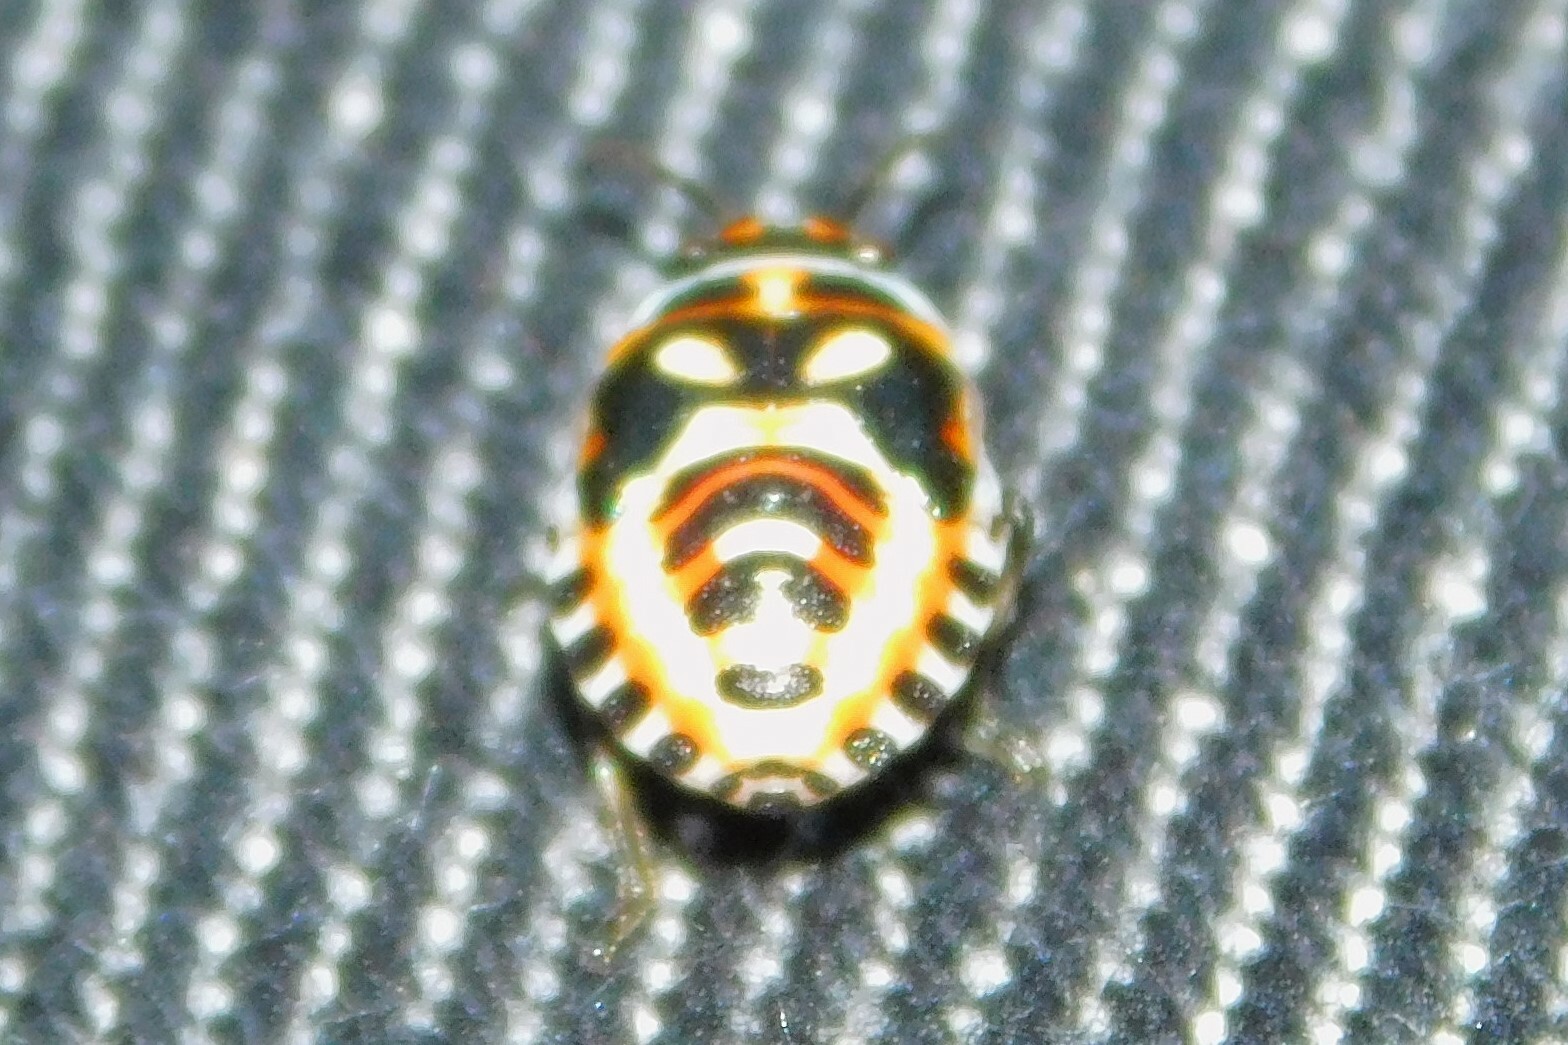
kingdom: Animalia
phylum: Arthropoda
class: Insecta
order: Hemiptera
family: Pentatomidae
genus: Eurydema
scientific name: Eurydema ornata
